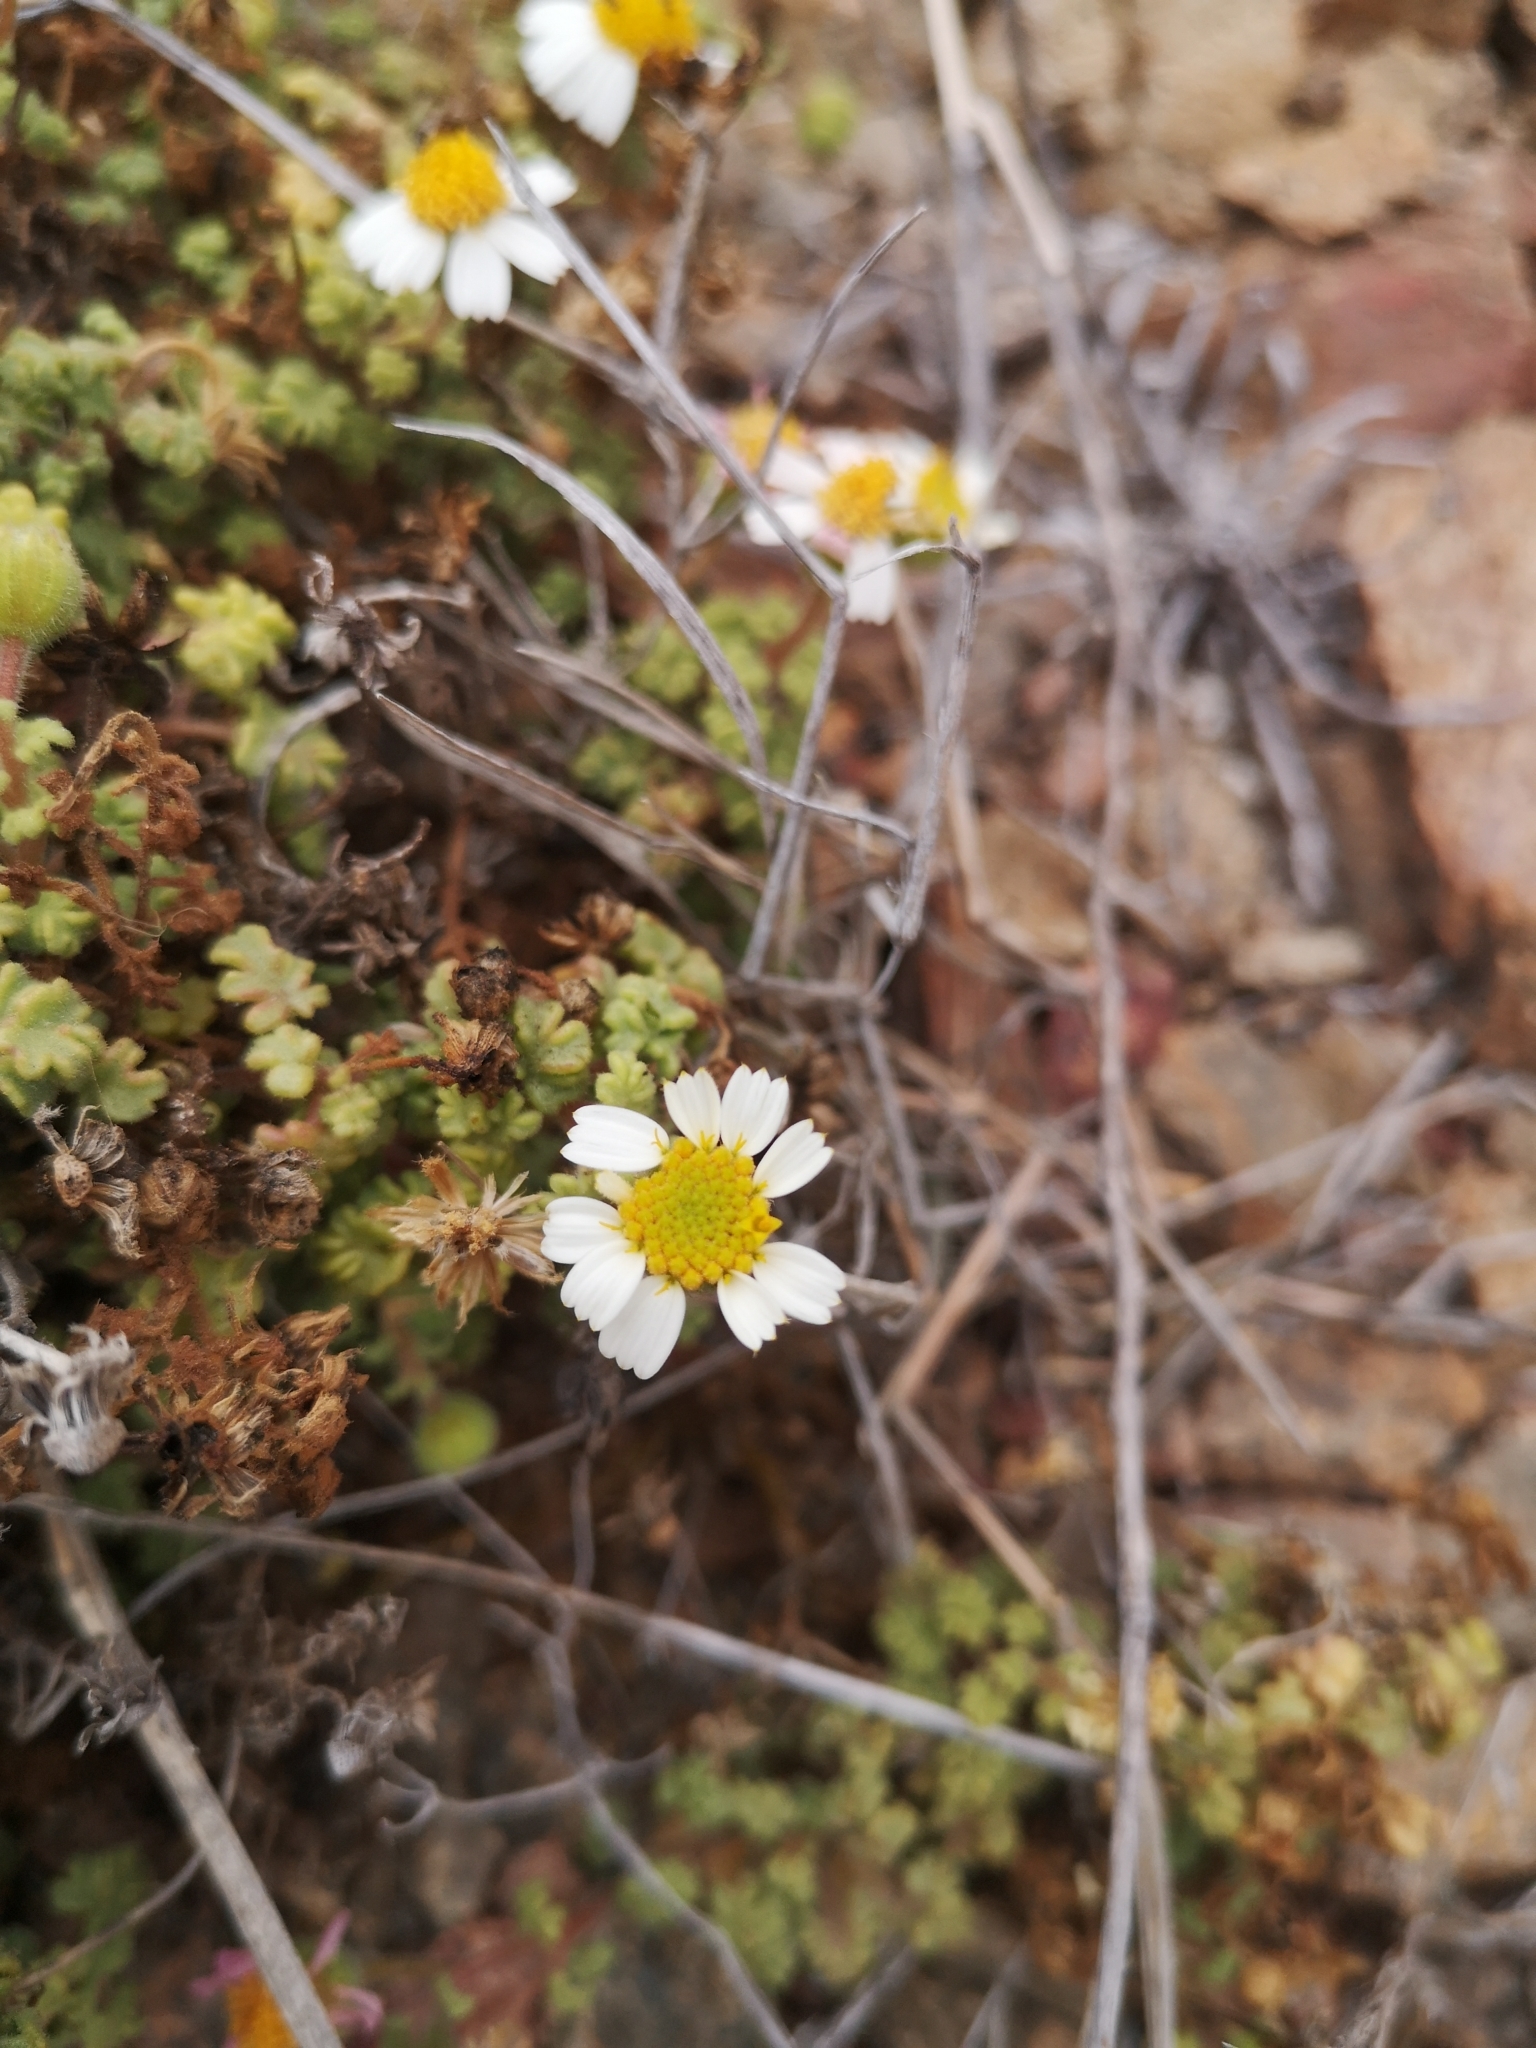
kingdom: Plantae
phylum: Tracheophyta
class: Magnoliopsida
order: Asterales
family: Asteraceae
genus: Laphamia
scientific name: Laphamia emoryi
